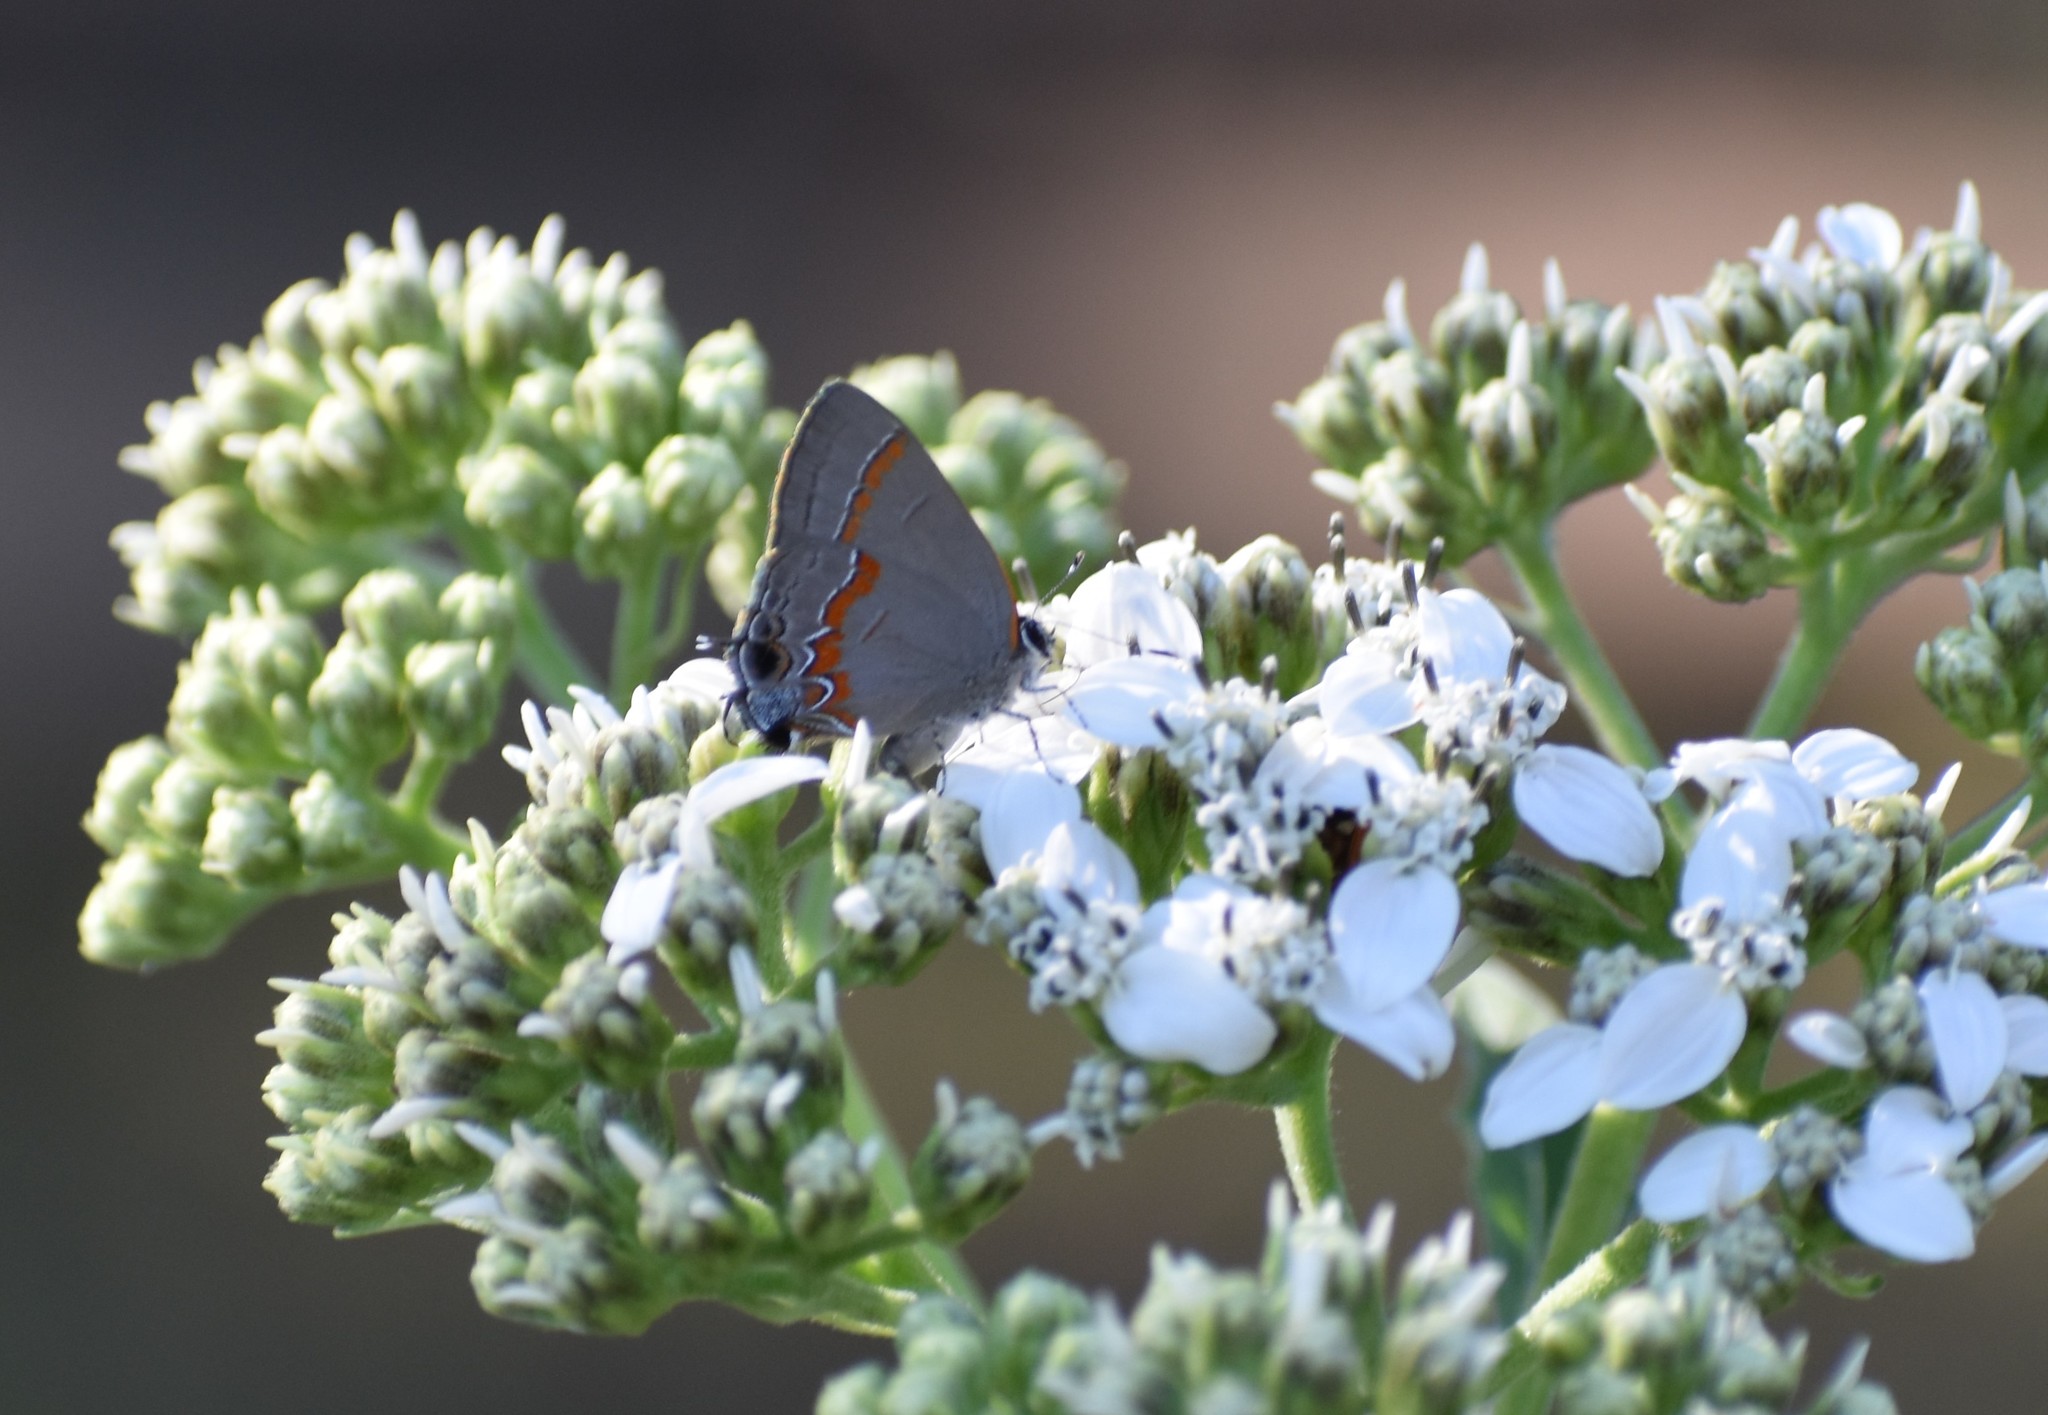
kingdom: Animalia
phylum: Arthropoda
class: Insecta
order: Lepidoptera
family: Lycaenidae
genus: Calycopis
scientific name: Calycopis cecrops
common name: Red-banded hairstreak
